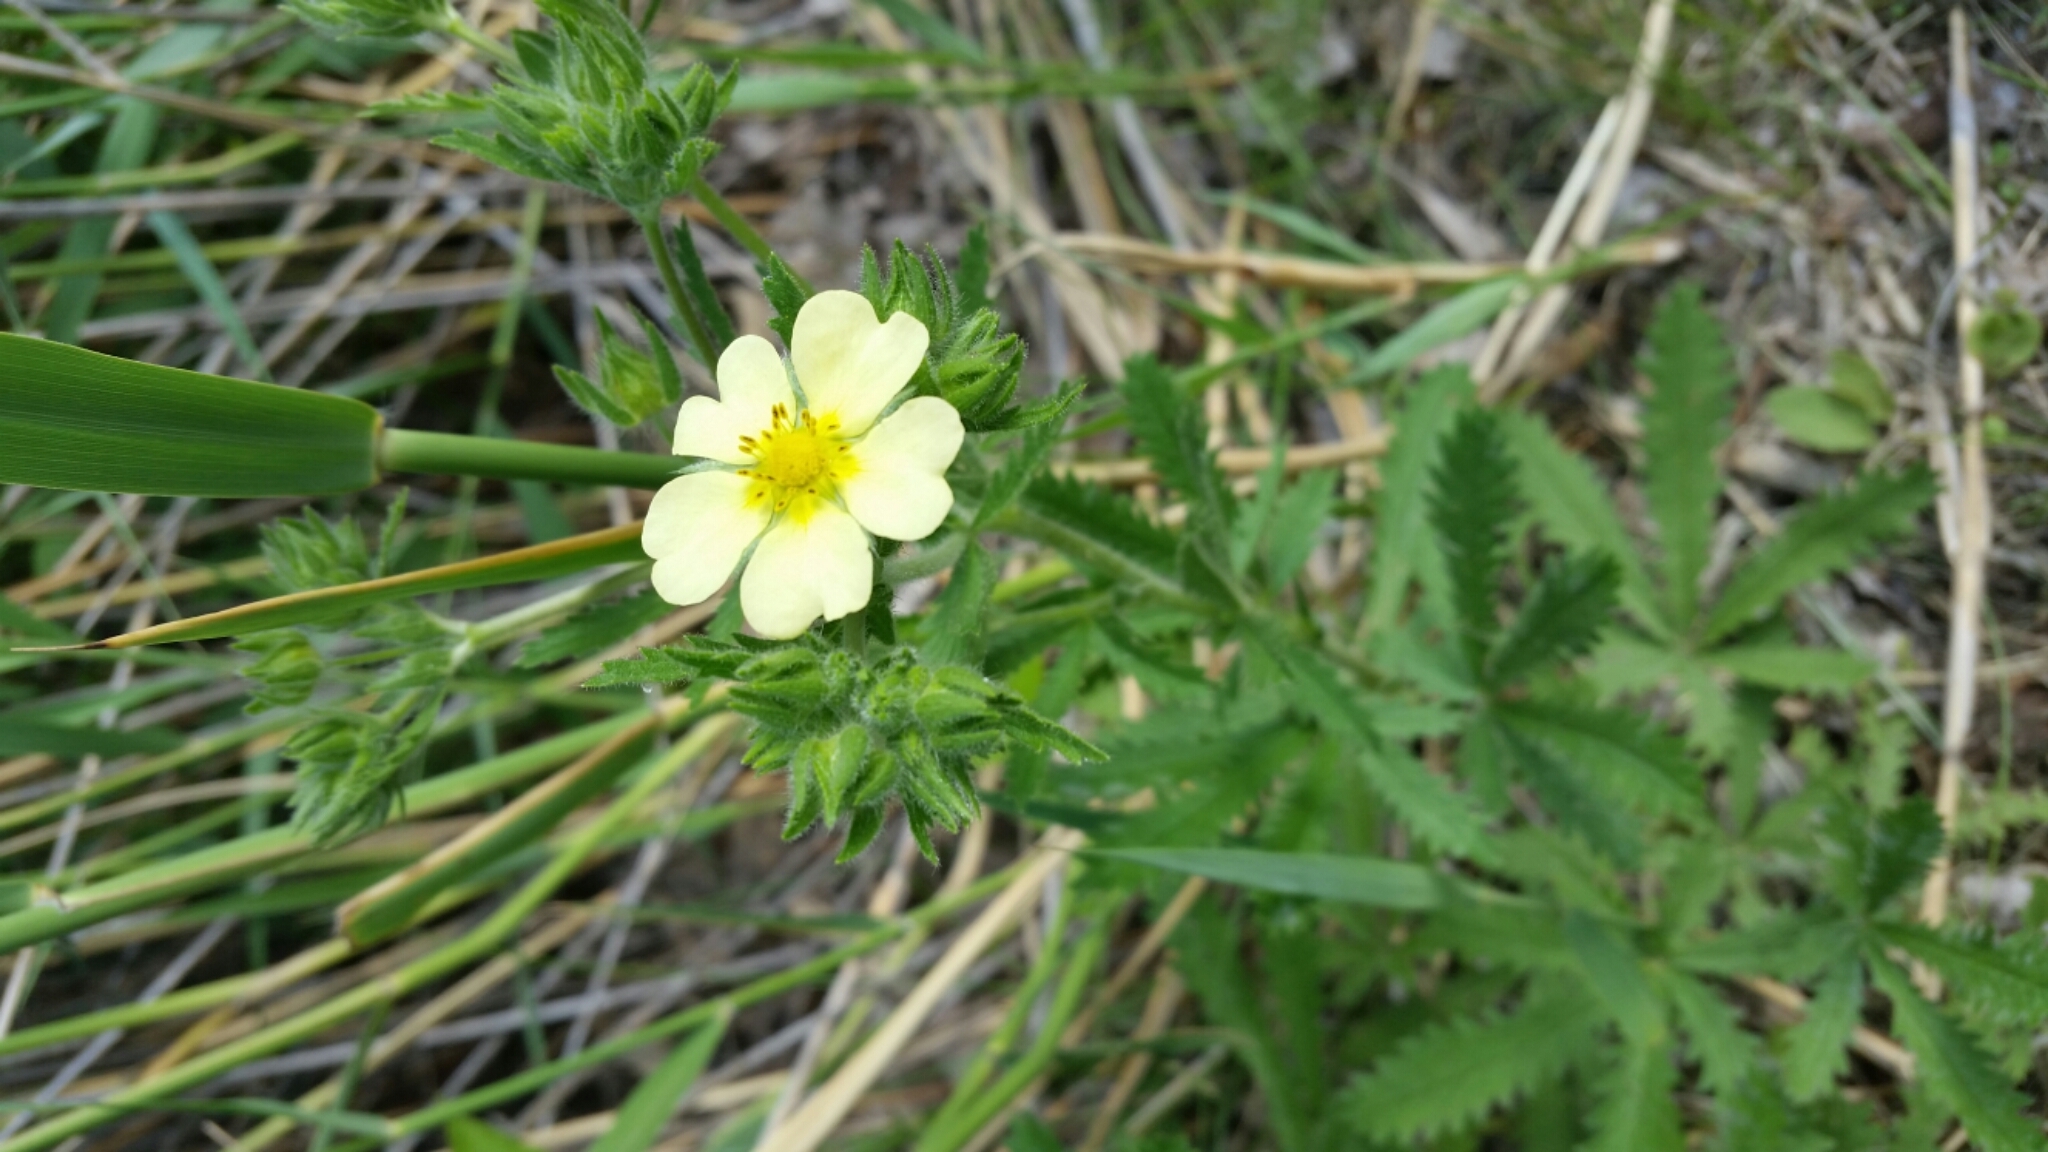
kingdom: Plantae
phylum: Tracheophyta
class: Magnoliopsida
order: Rosales
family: Rosaceae
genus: Potentilla
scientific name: Potentilla recta
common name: Sulphur cinquefoil
